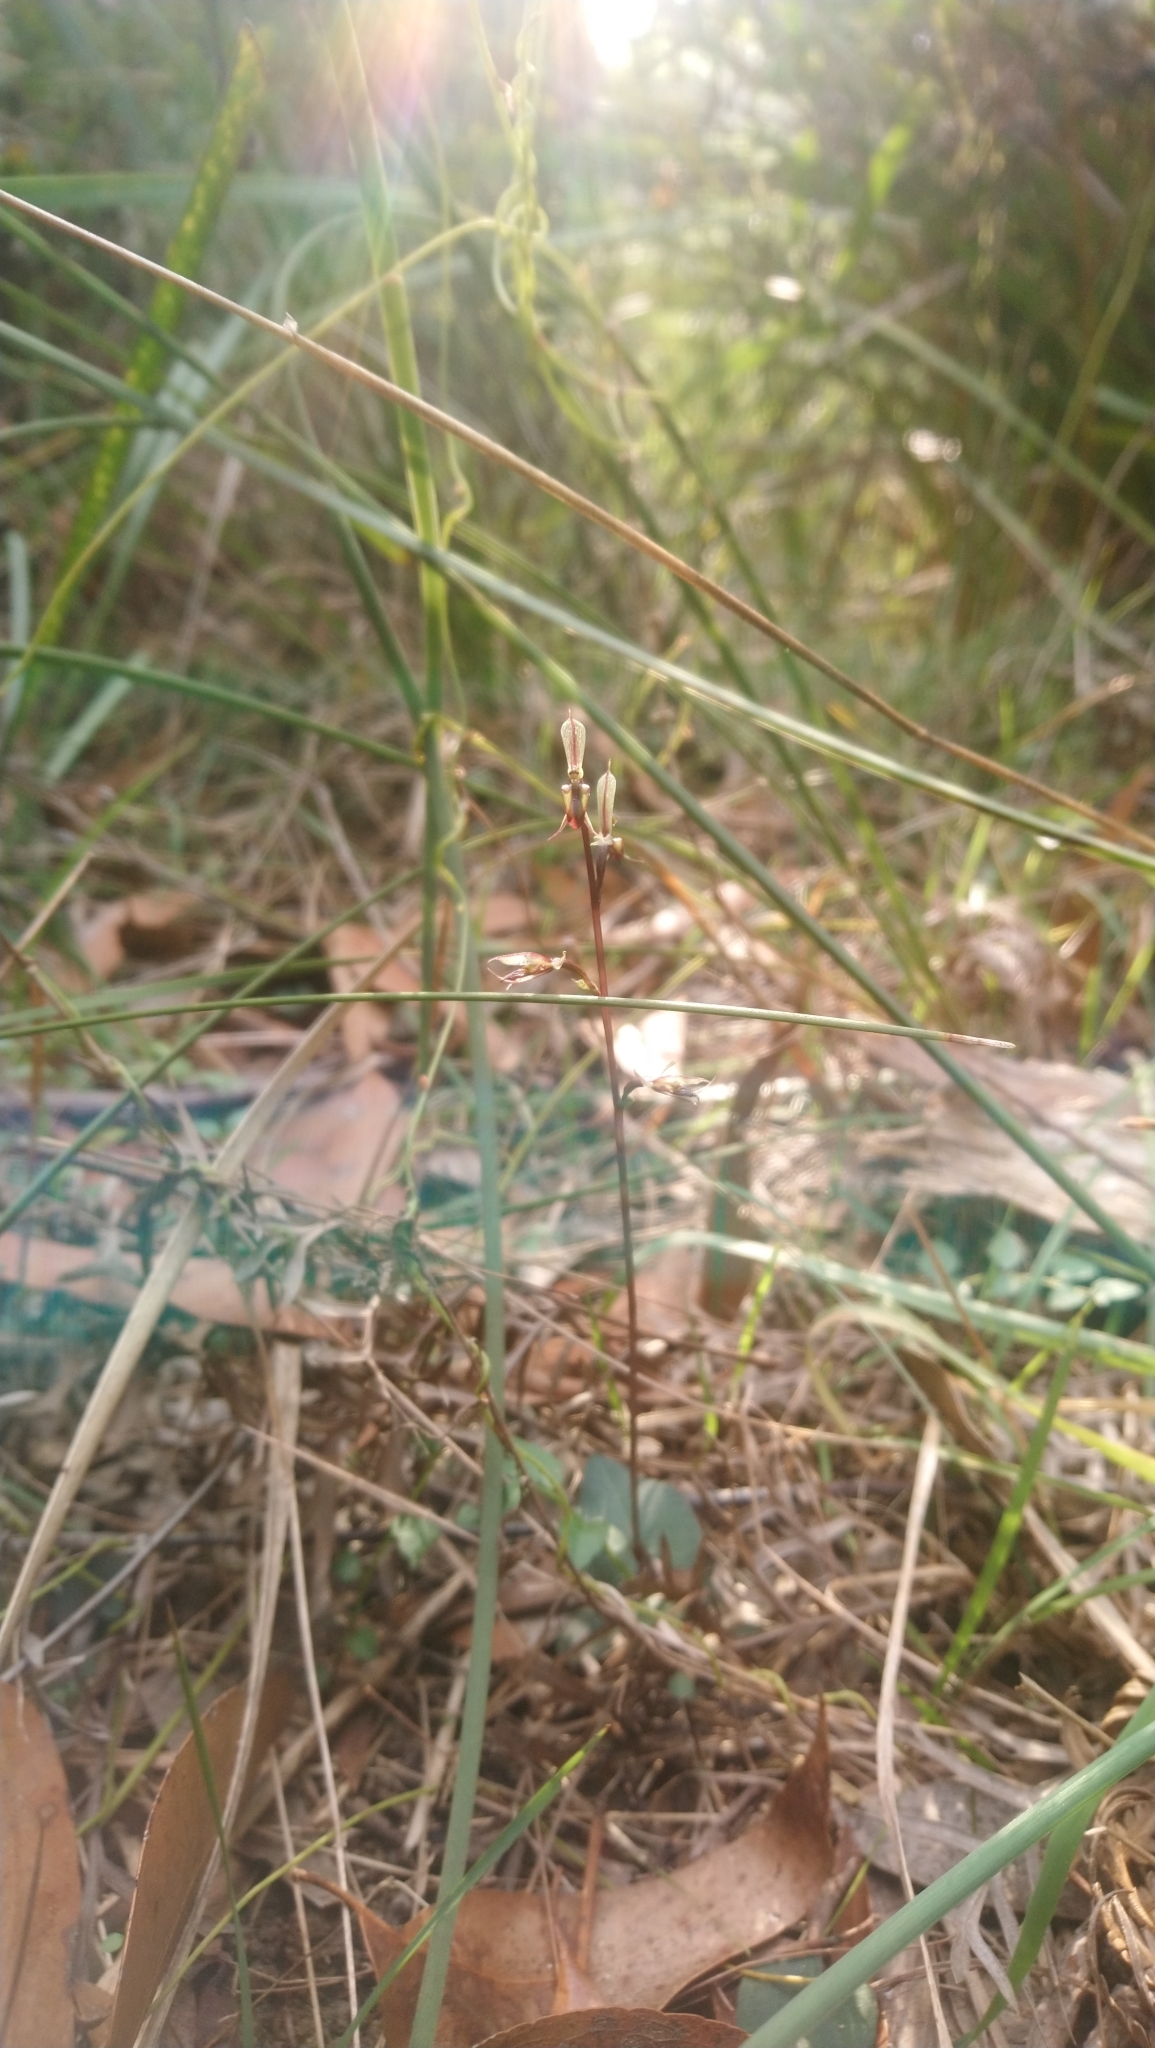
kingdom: Plantae
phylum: Tracheophyta
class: Liliopsida
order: Asparagales
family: Orchidaceae
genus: Acianthus
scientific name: Acianthus exsertus
